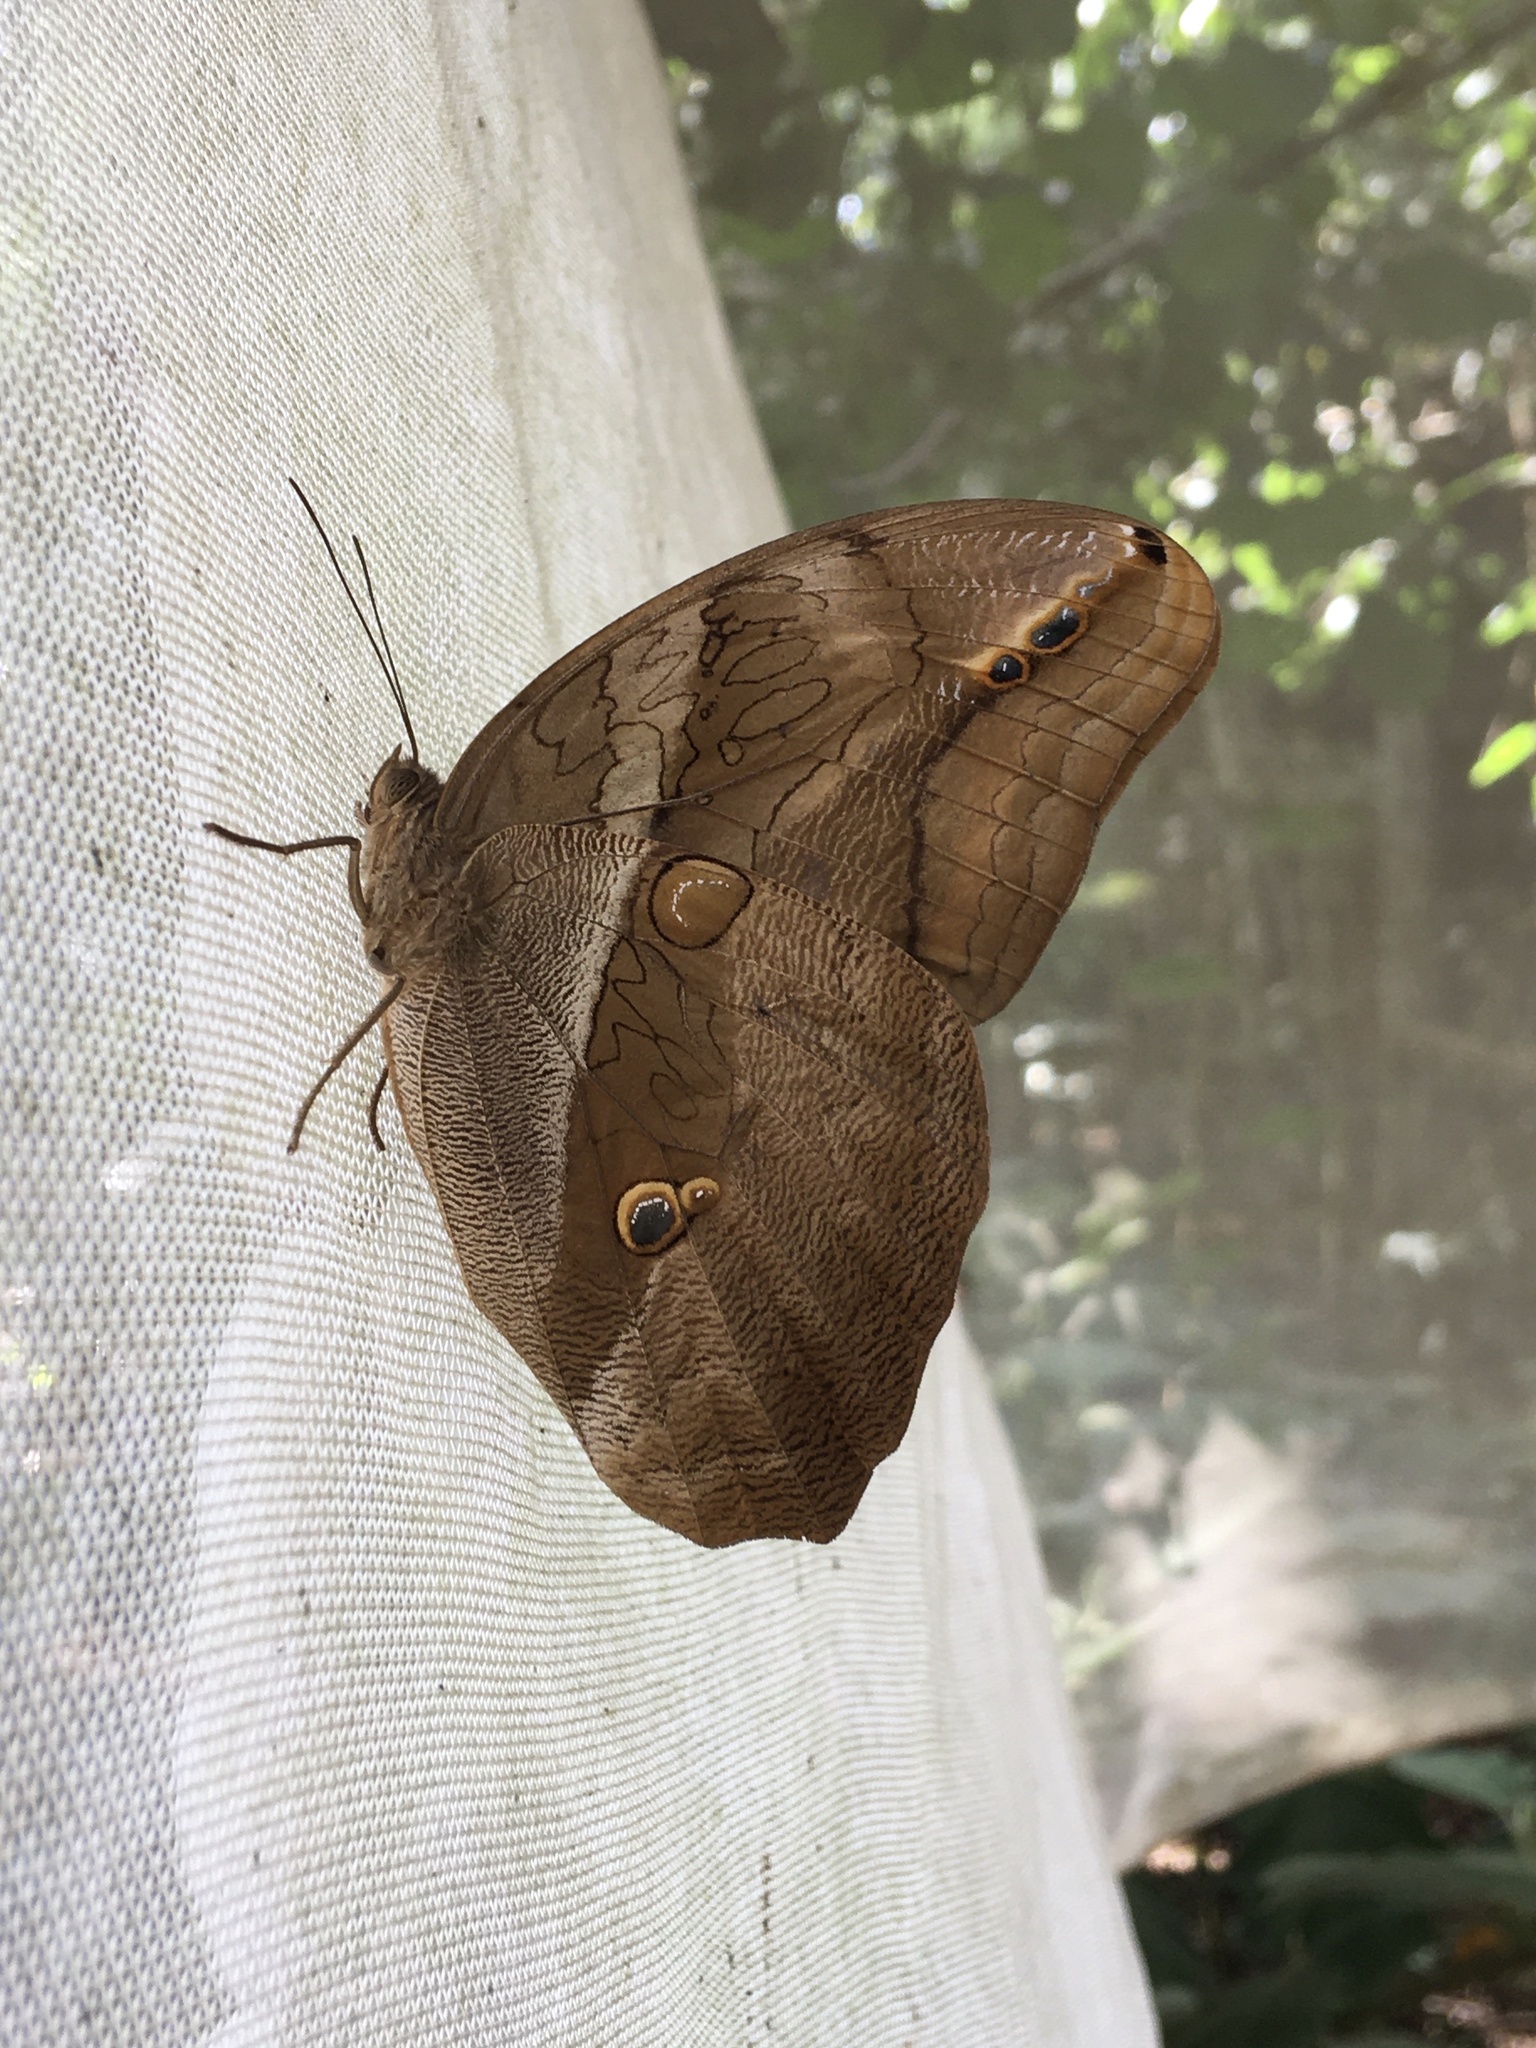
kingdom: Animalia
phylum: Arthropoda
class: Insecta
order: Lepidoptera
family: Nymphalidae
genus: Eryphanis
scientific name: Eryphanis polyxena
